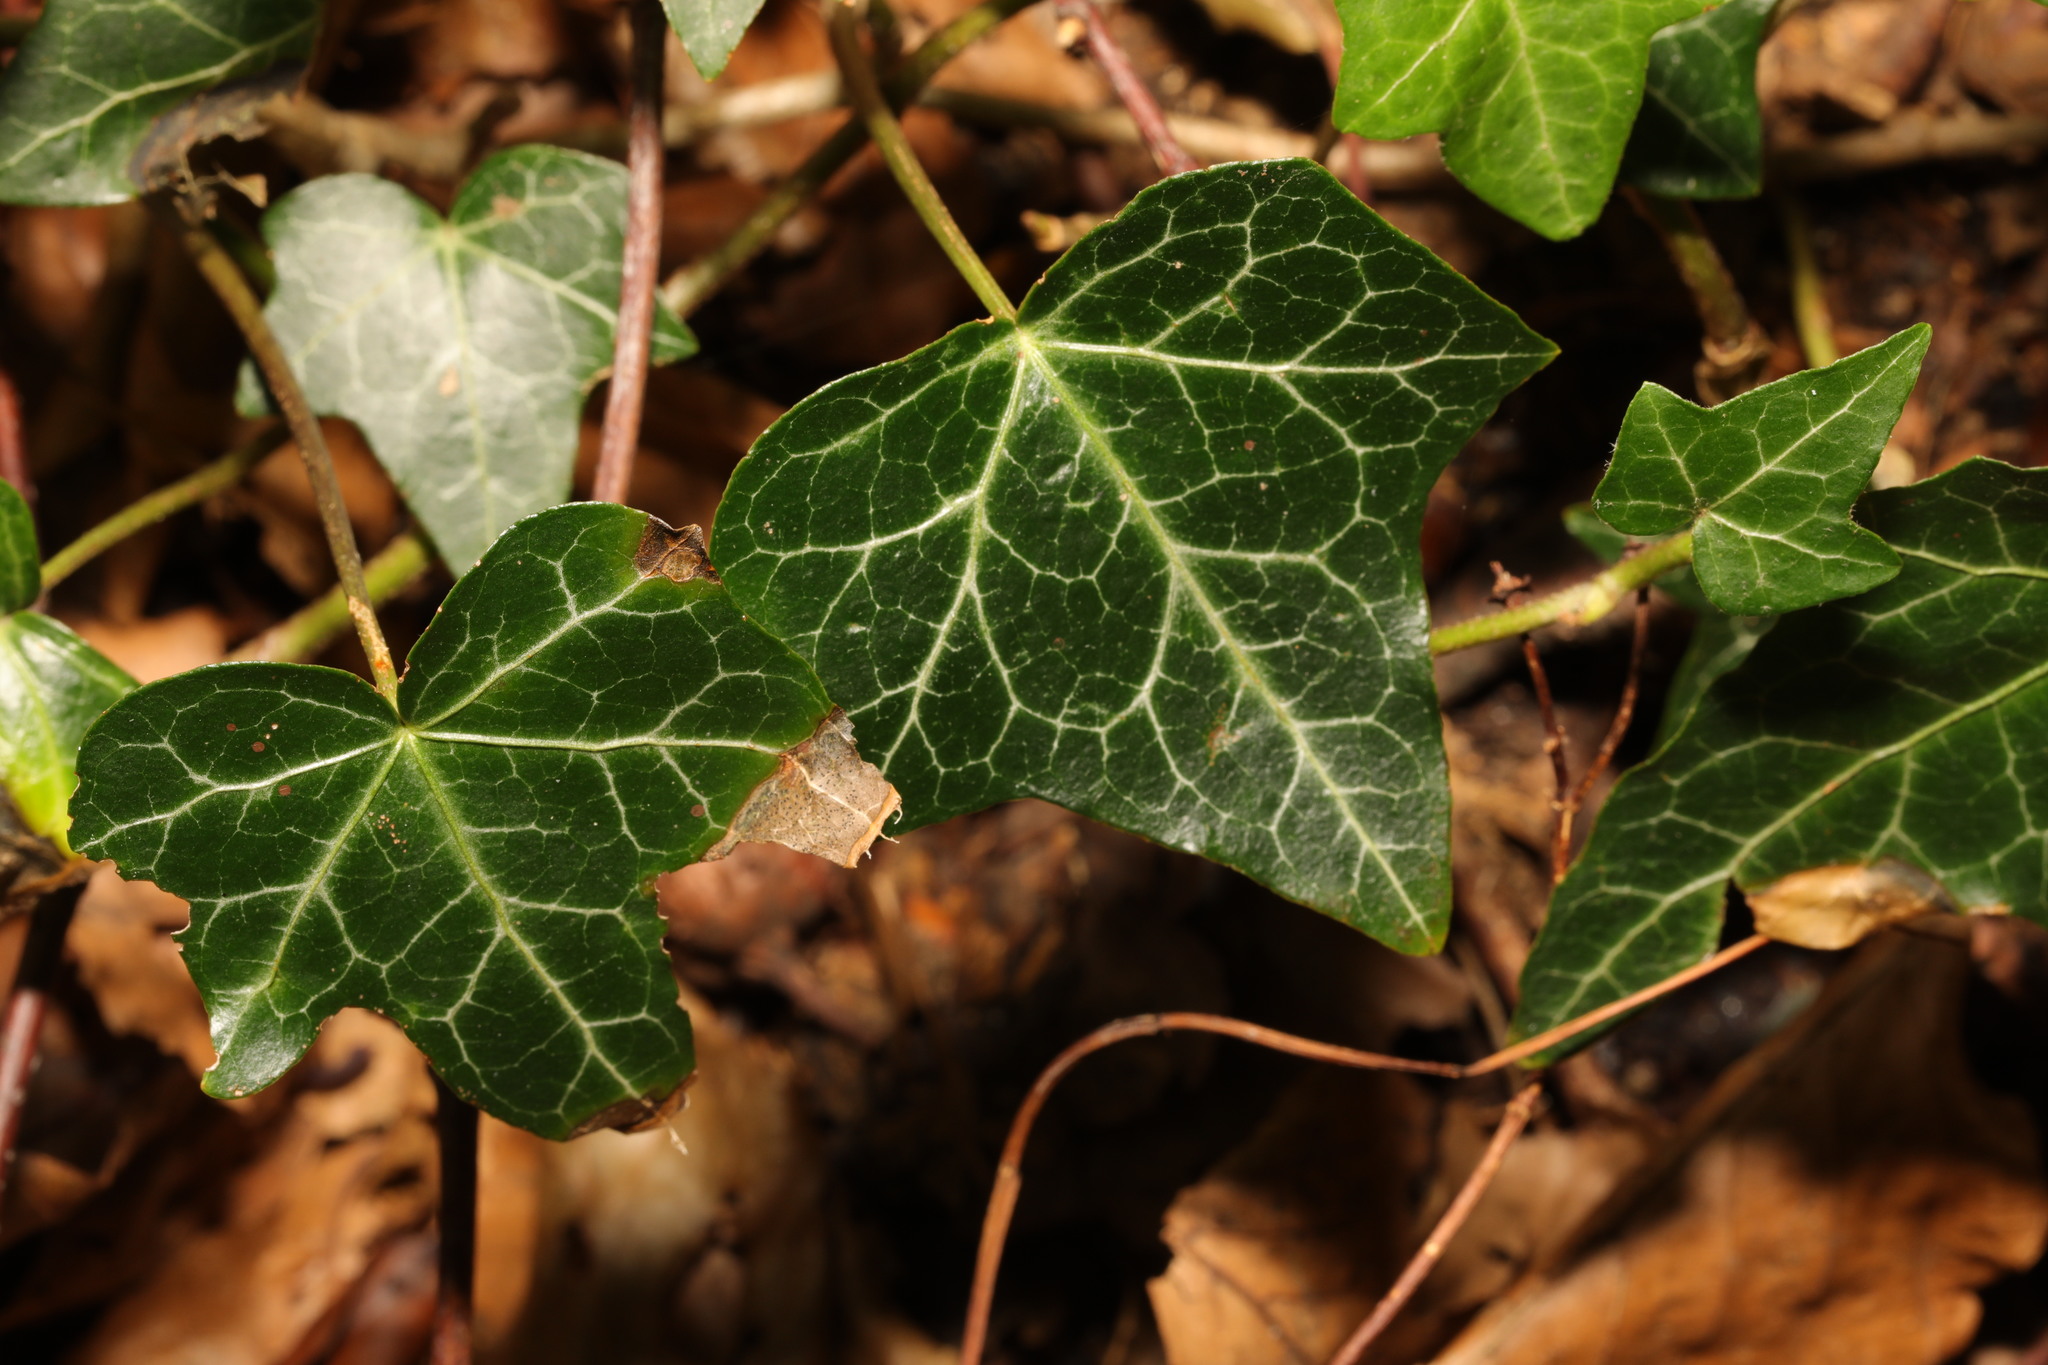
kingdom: Plantae
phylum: Tracheophyta
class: Magnoliopsida
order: Apiales
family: Araliaceae
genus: Hedera
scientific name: Hedera helix
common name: Ivy
